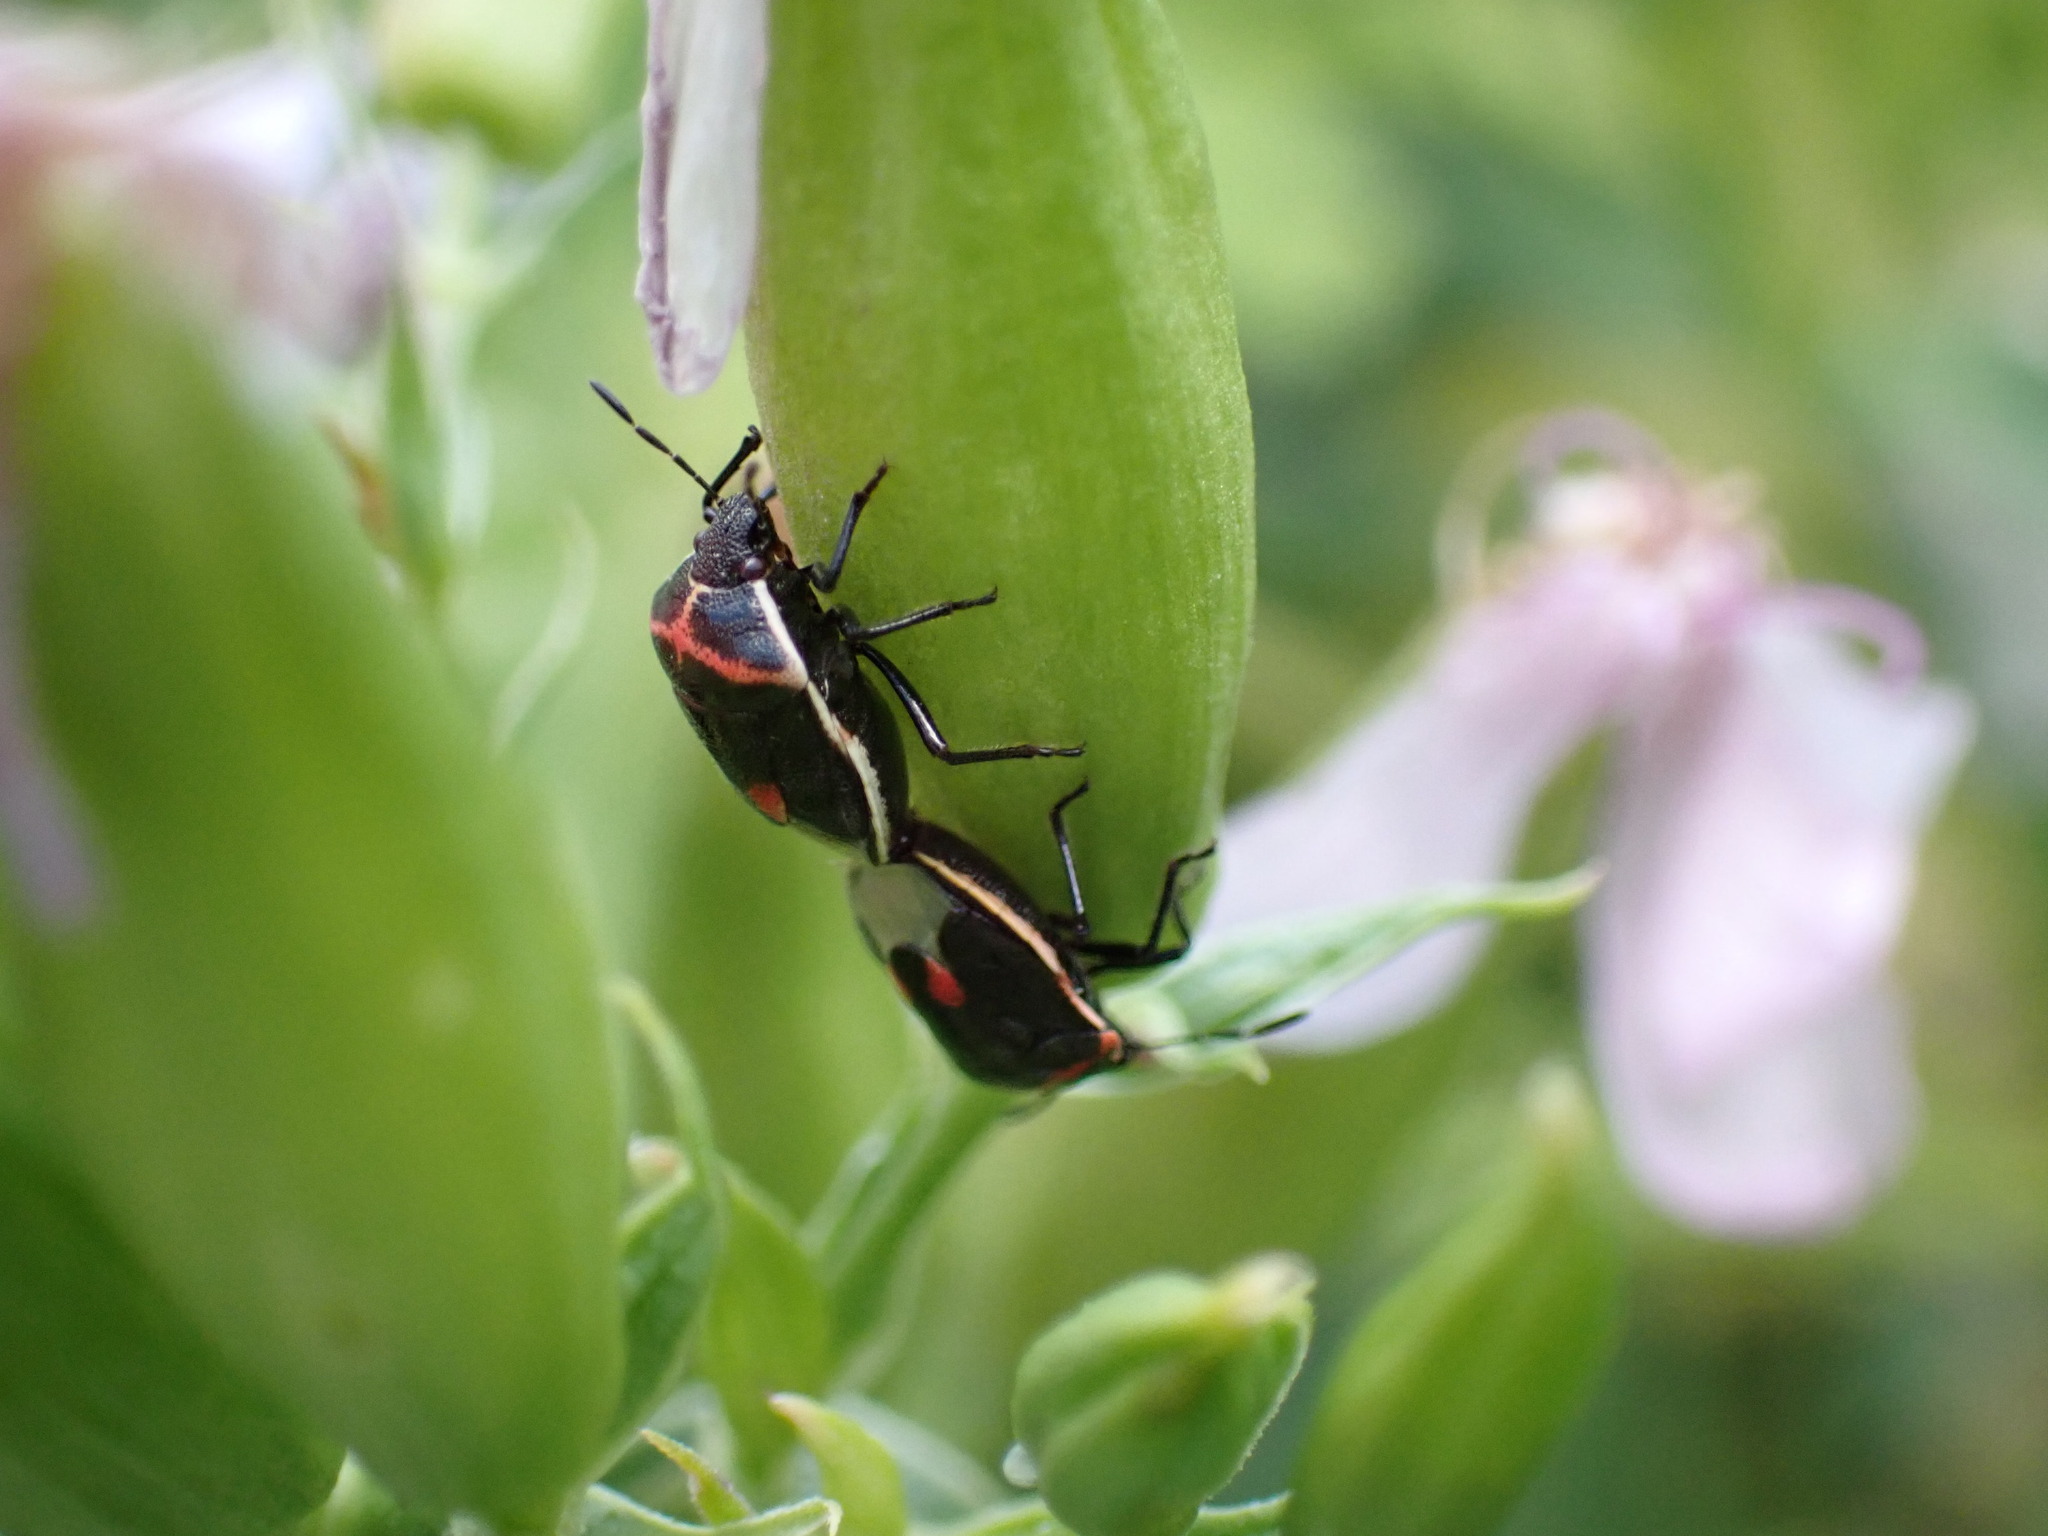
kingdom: Animalia
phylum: Arthropoda
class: Insecta
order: Hemiptera
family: Pentatomidae
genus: Cosmopepla
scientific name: Cosmopepla lintneriana
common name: Twice-stabbed stink bug
